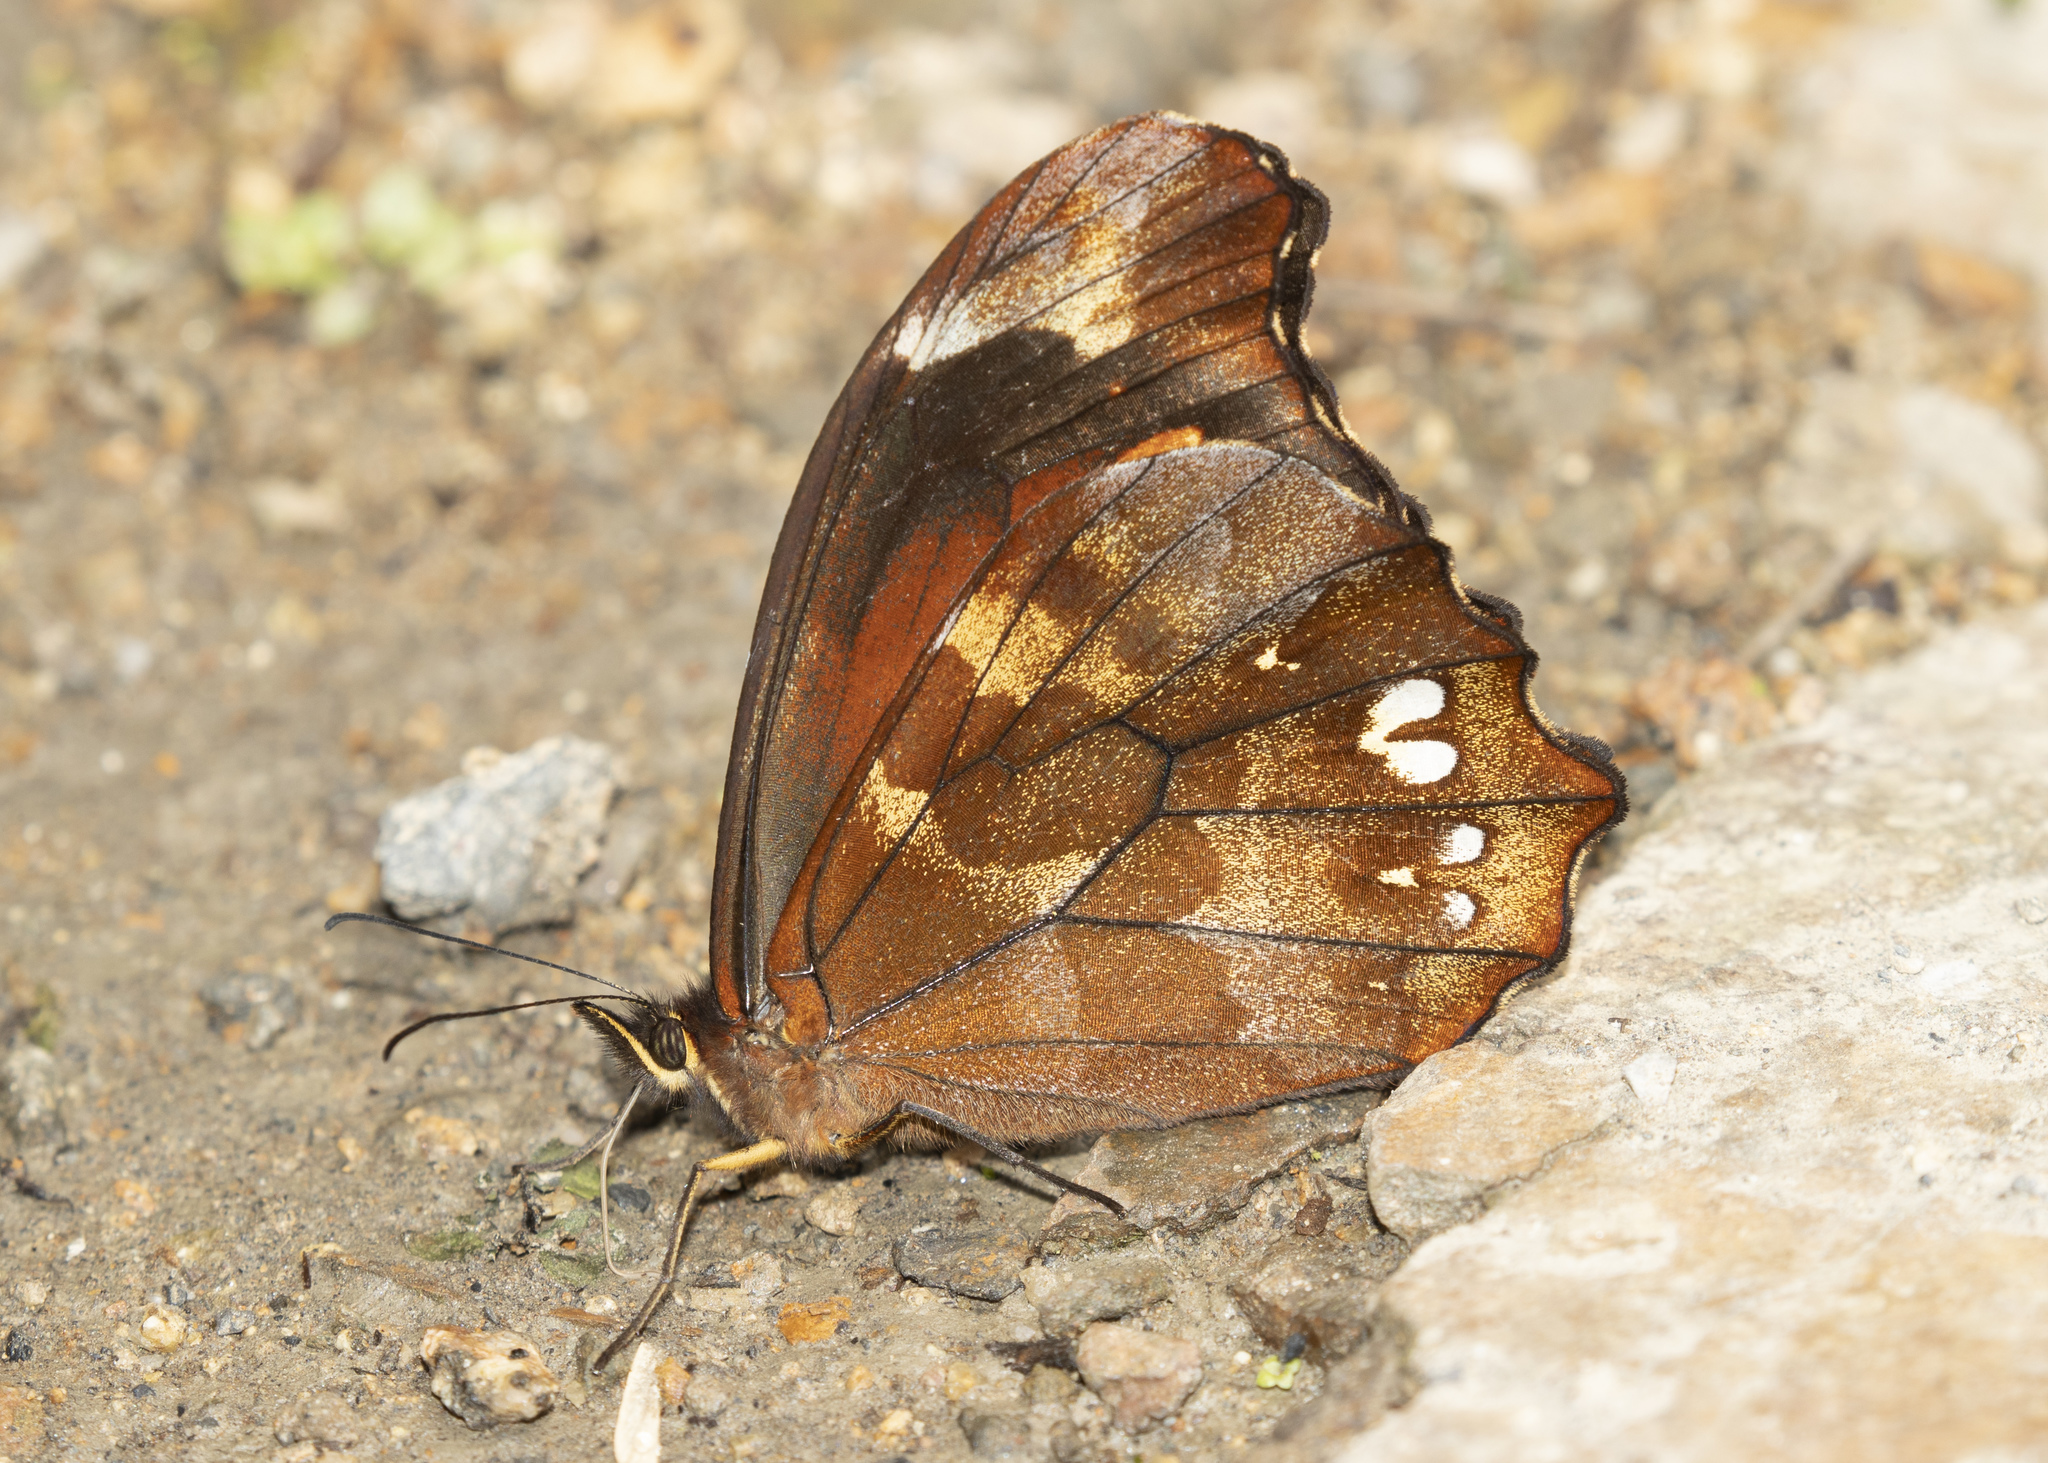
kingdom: Animalia
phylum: Arthropoda
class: Insecta
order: Lepidoptera
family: Nymphalidae
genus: Mygona
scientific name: Mygona thammi
